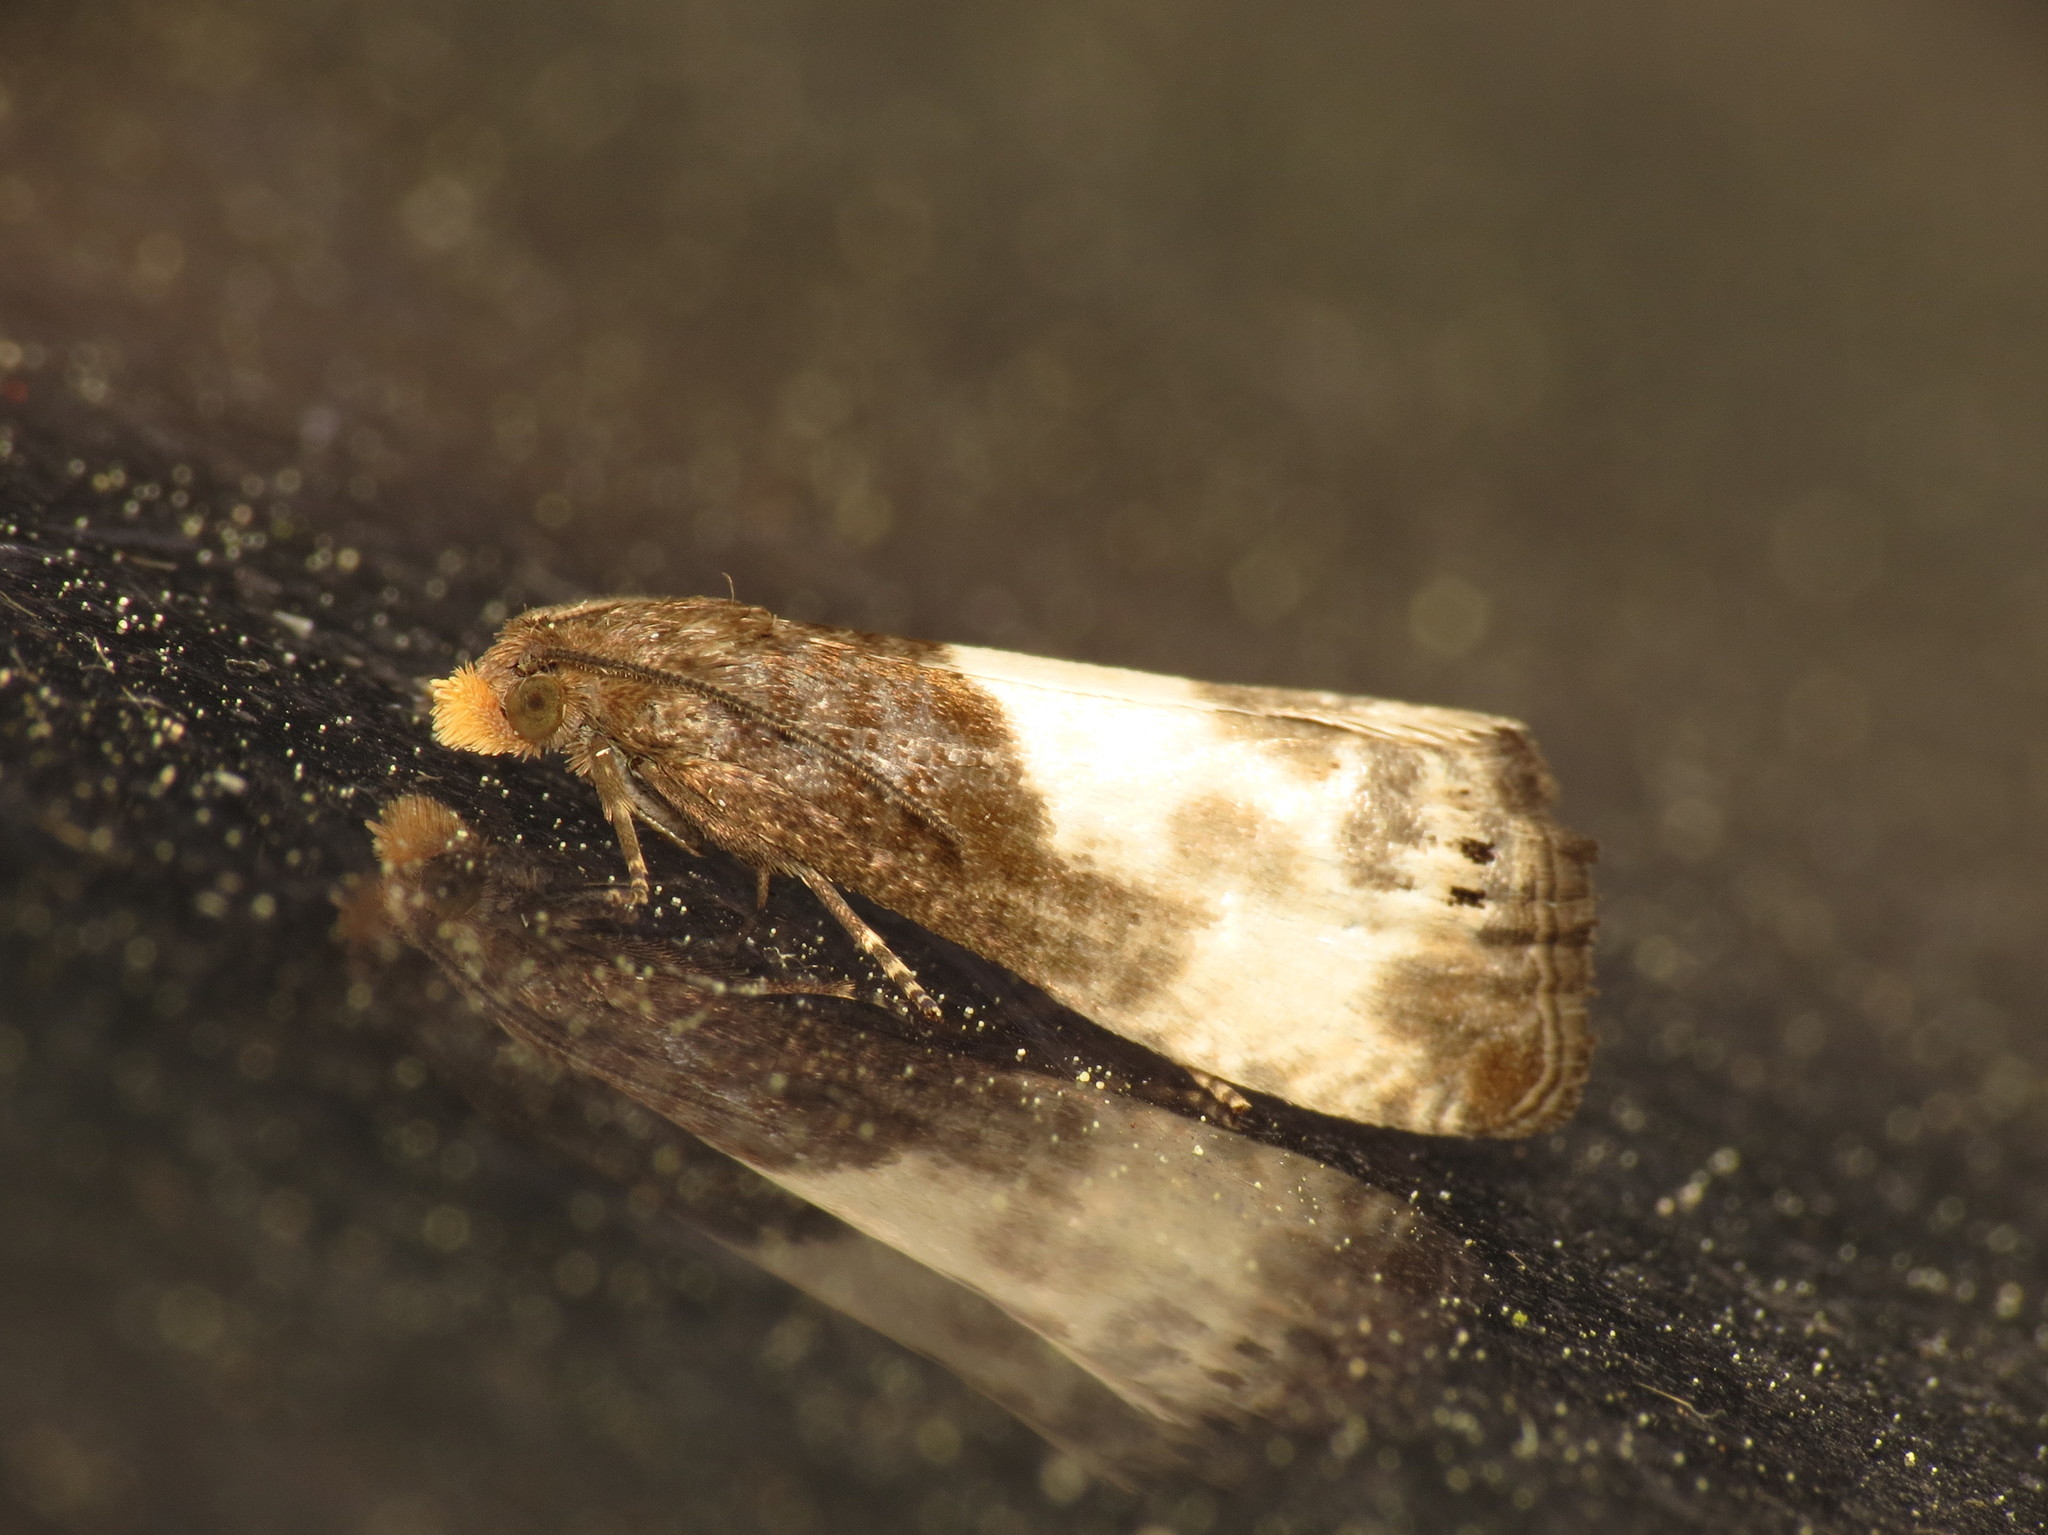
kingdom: Animalia
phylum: Arthropoda
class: Insecta
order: Lepidoptera
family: Tortricidae
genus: Notocelia
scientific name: Notocelia cynosbatella
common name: Yellow-faced bell moth
